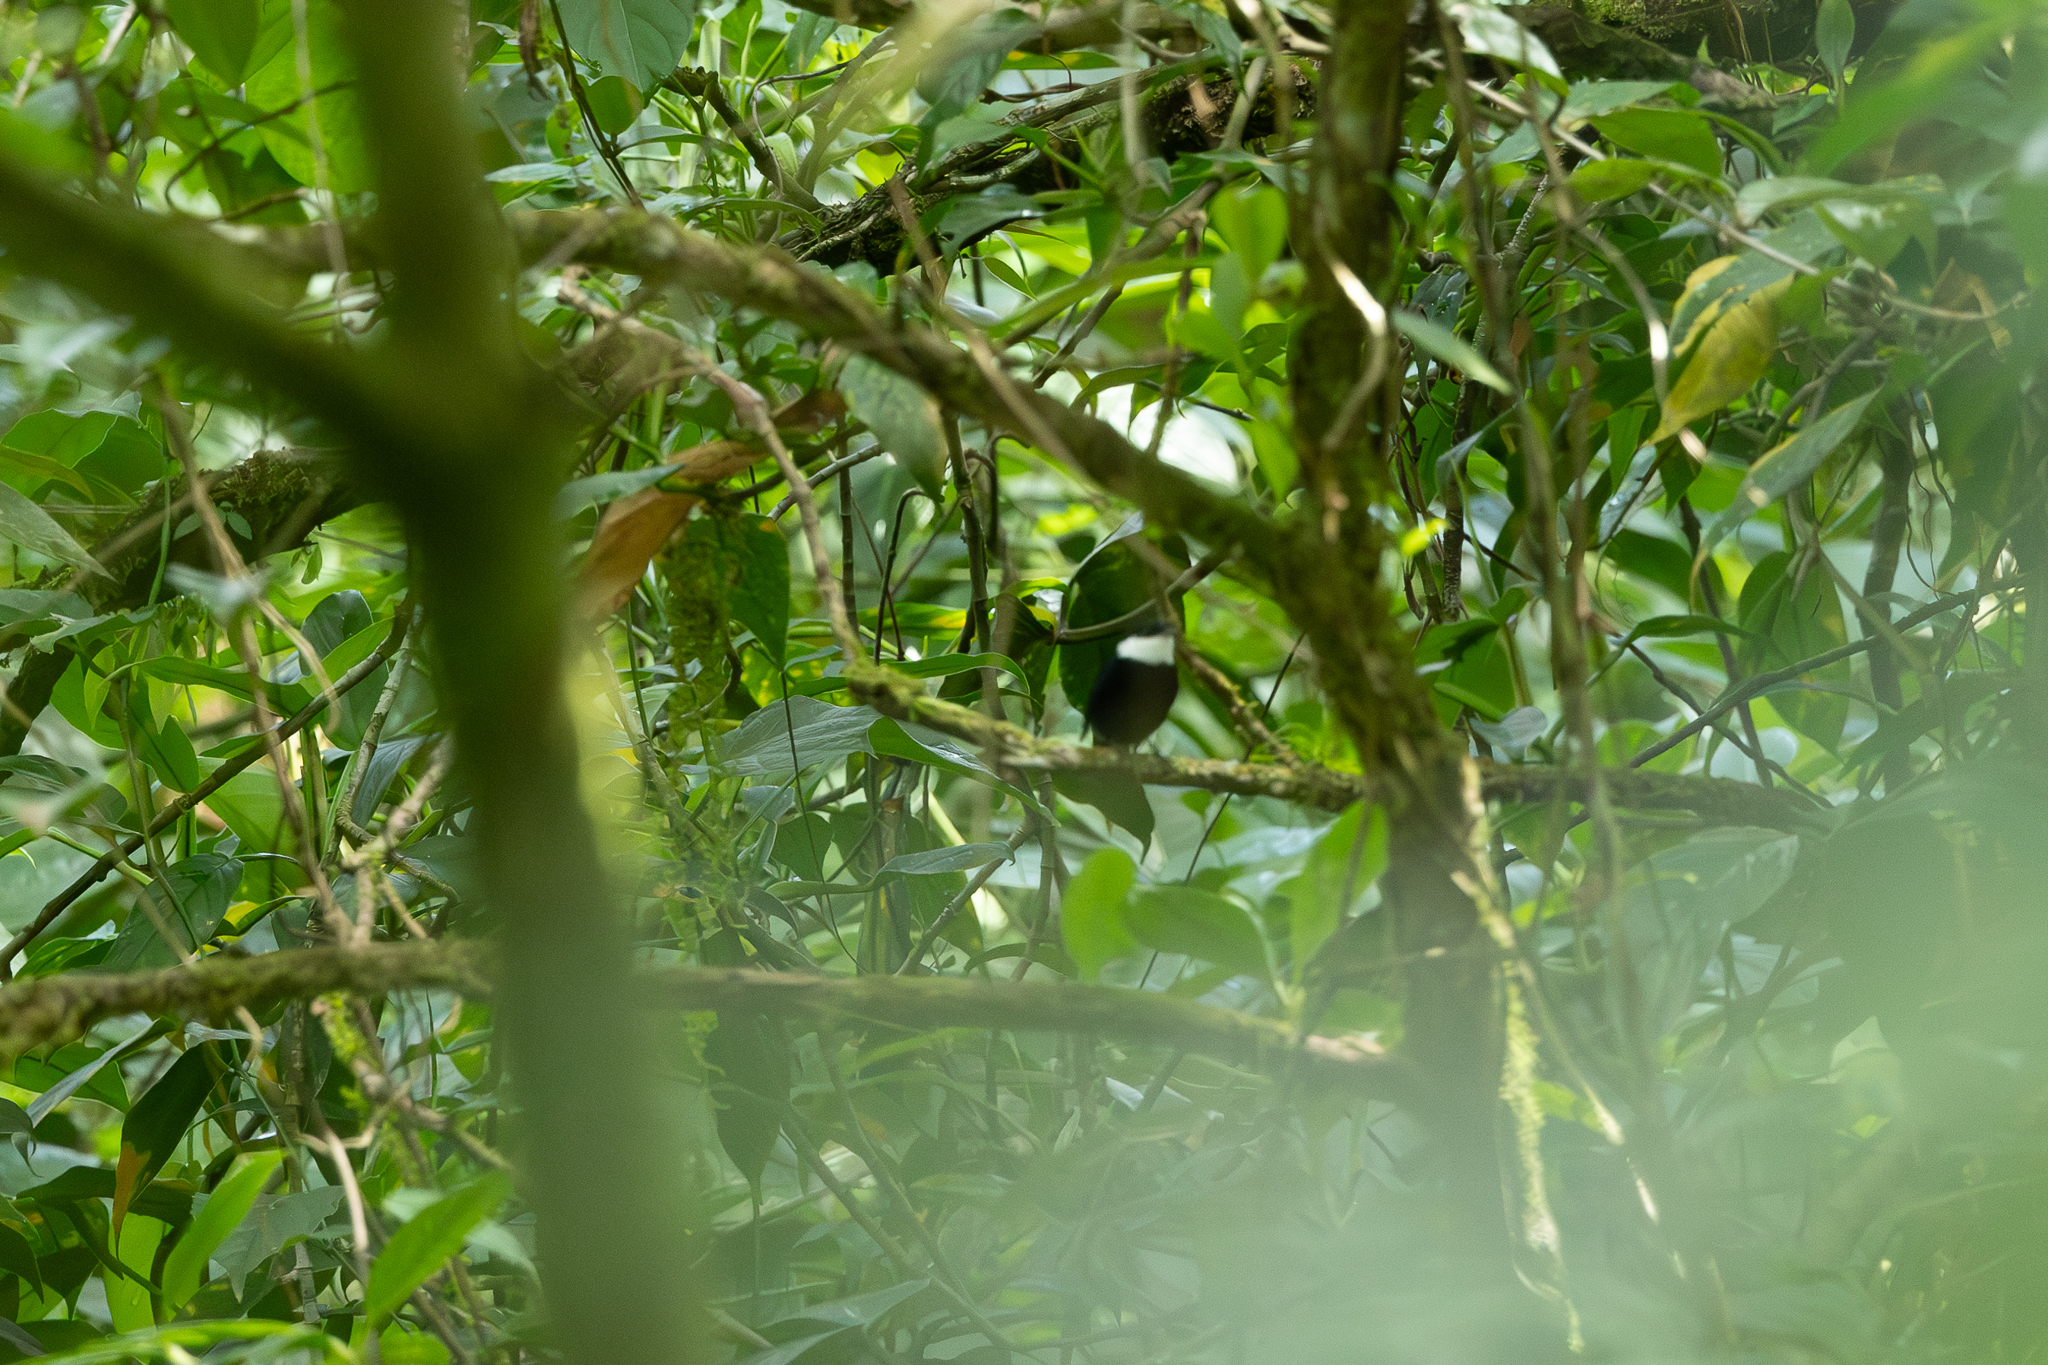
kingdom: Animalia
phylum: Chordata
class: Aves
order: Passeriformes
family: Pipridae
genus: Corapipo
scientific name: Corapipo altera
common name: White-ruffed manakin
